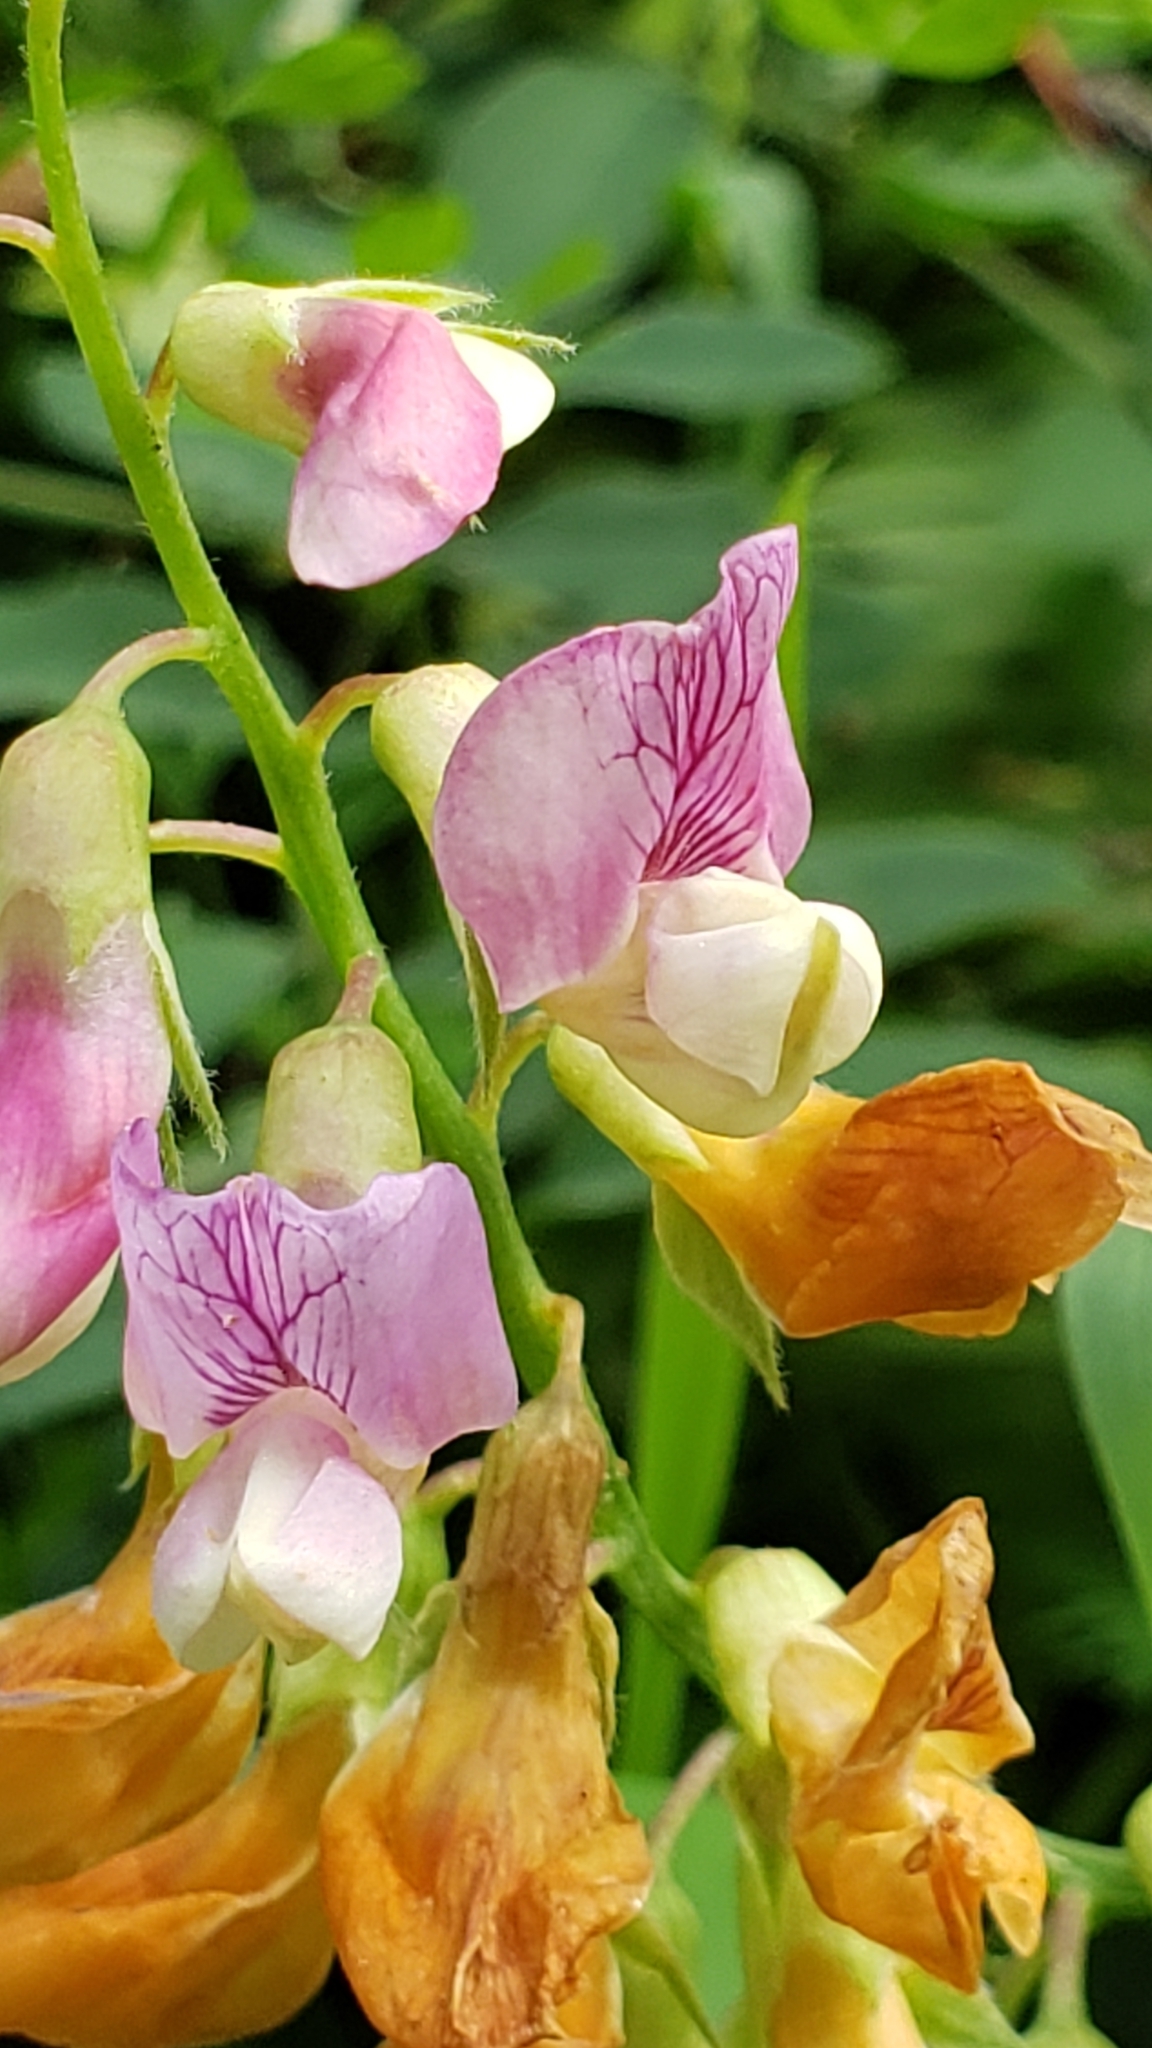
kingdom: Plantae
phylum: Tracheophyta
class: Magnoliopsida
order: Fabales
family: Fabaceae
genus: Lathyrus
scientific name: Lathyrus vestitus
